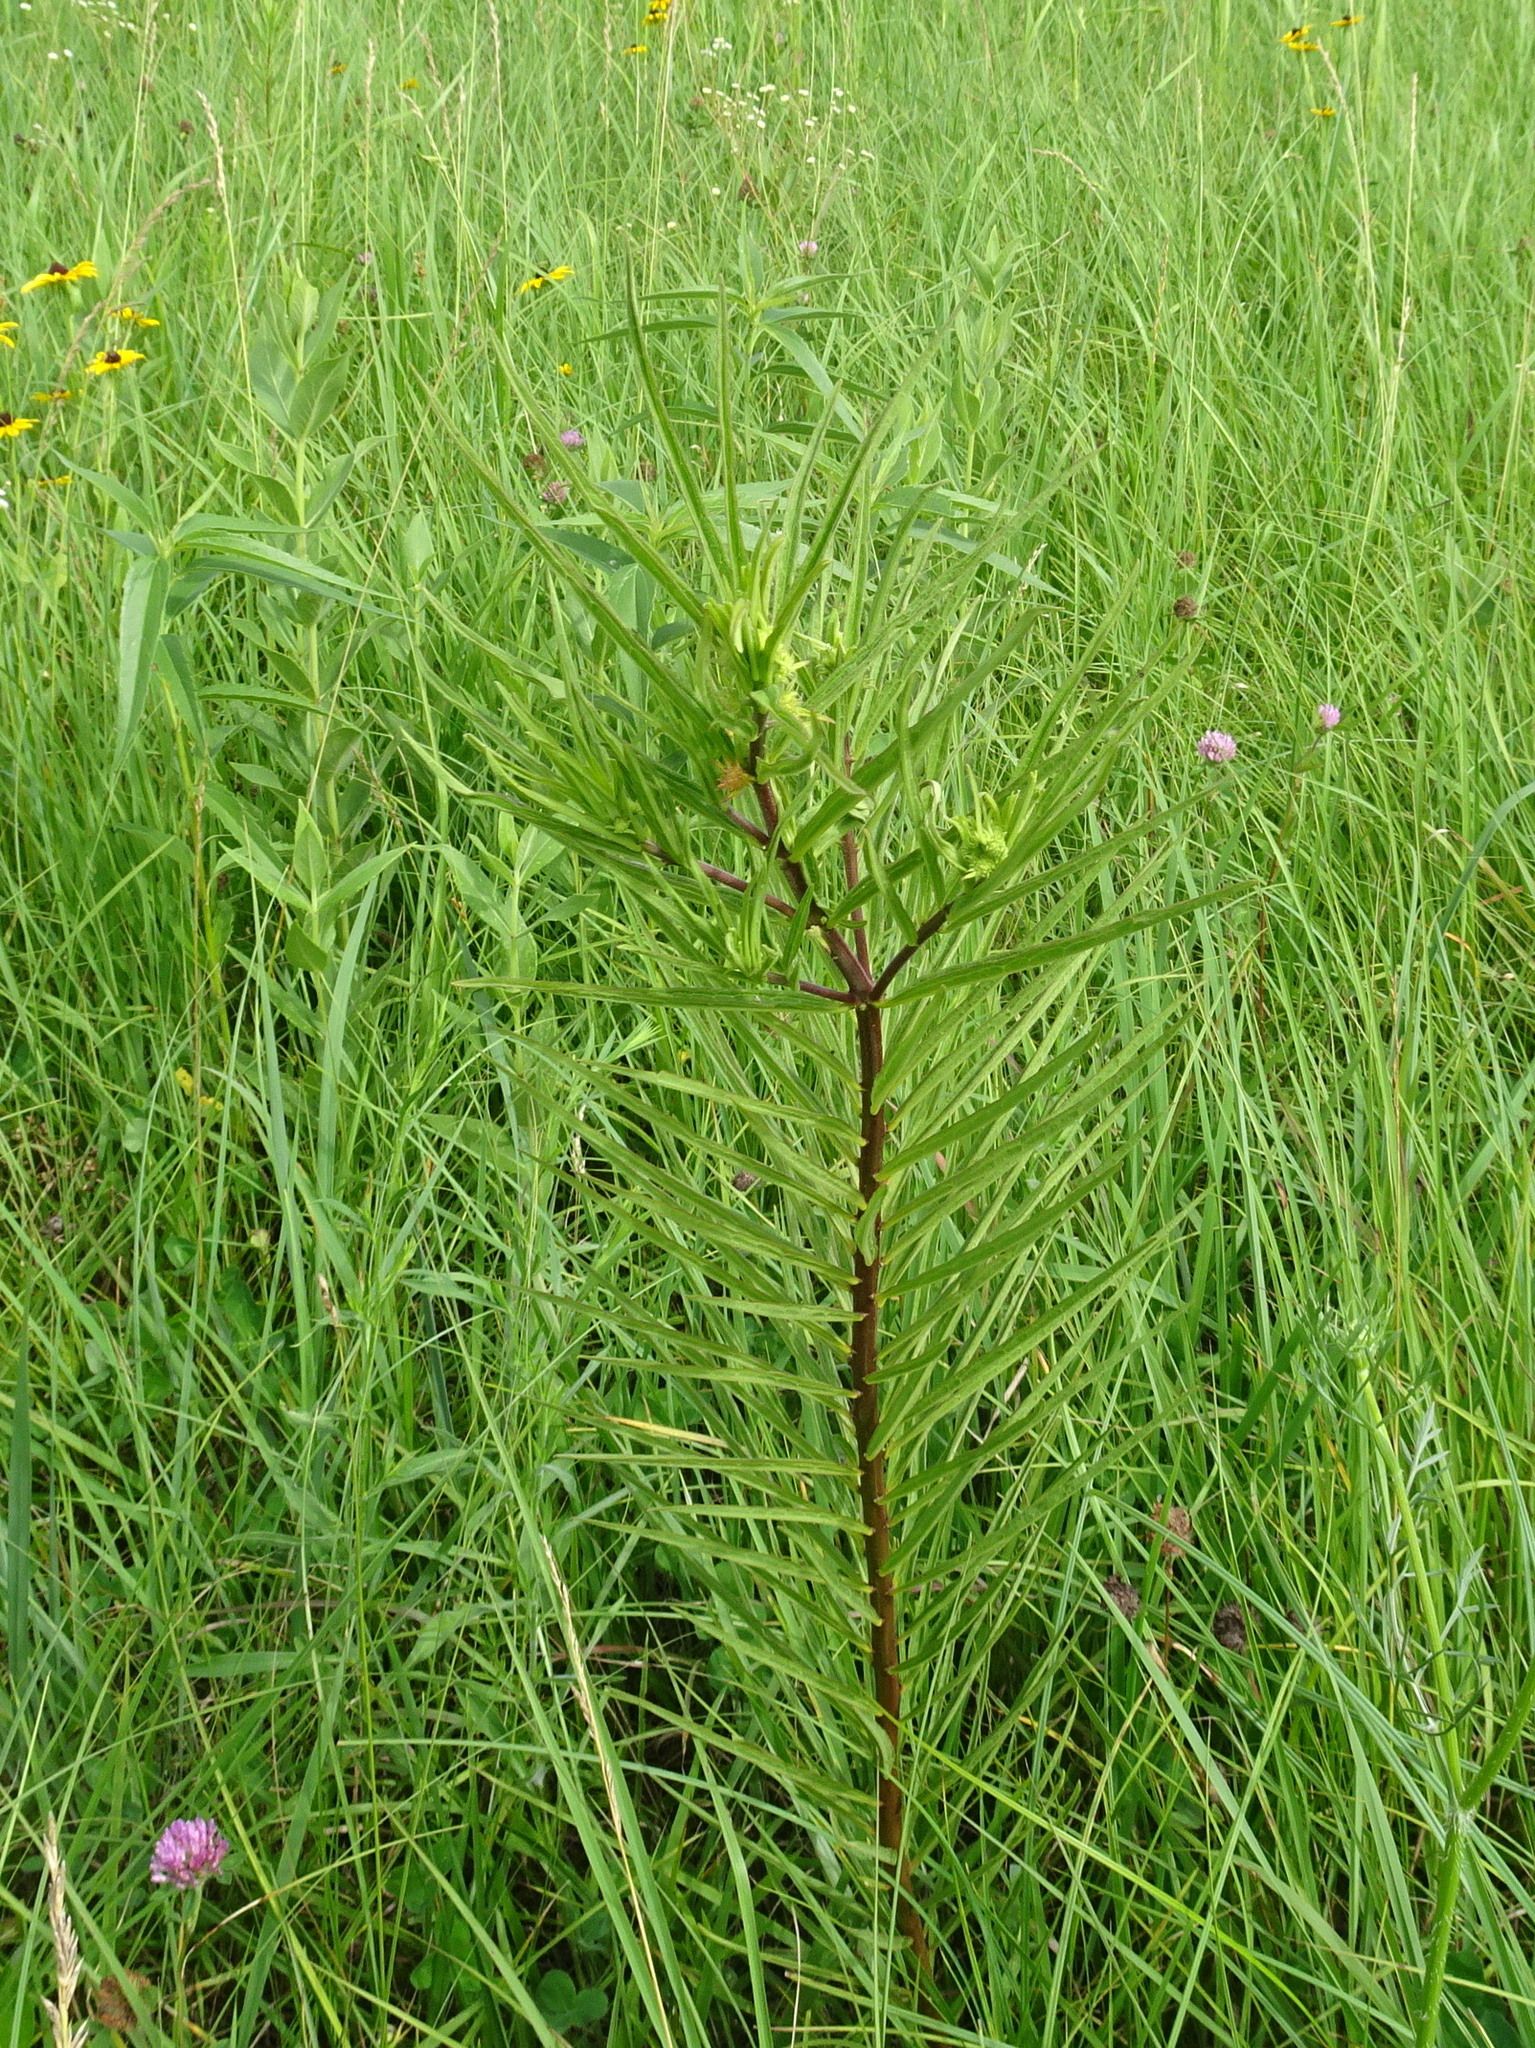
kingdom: Plantae
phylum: Tracheophyta
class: Magnoliopsida
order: Gentianales
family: Apocynaceae
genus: Asclepias
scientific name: Asclepias hirtella
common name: Prairie milkweed
